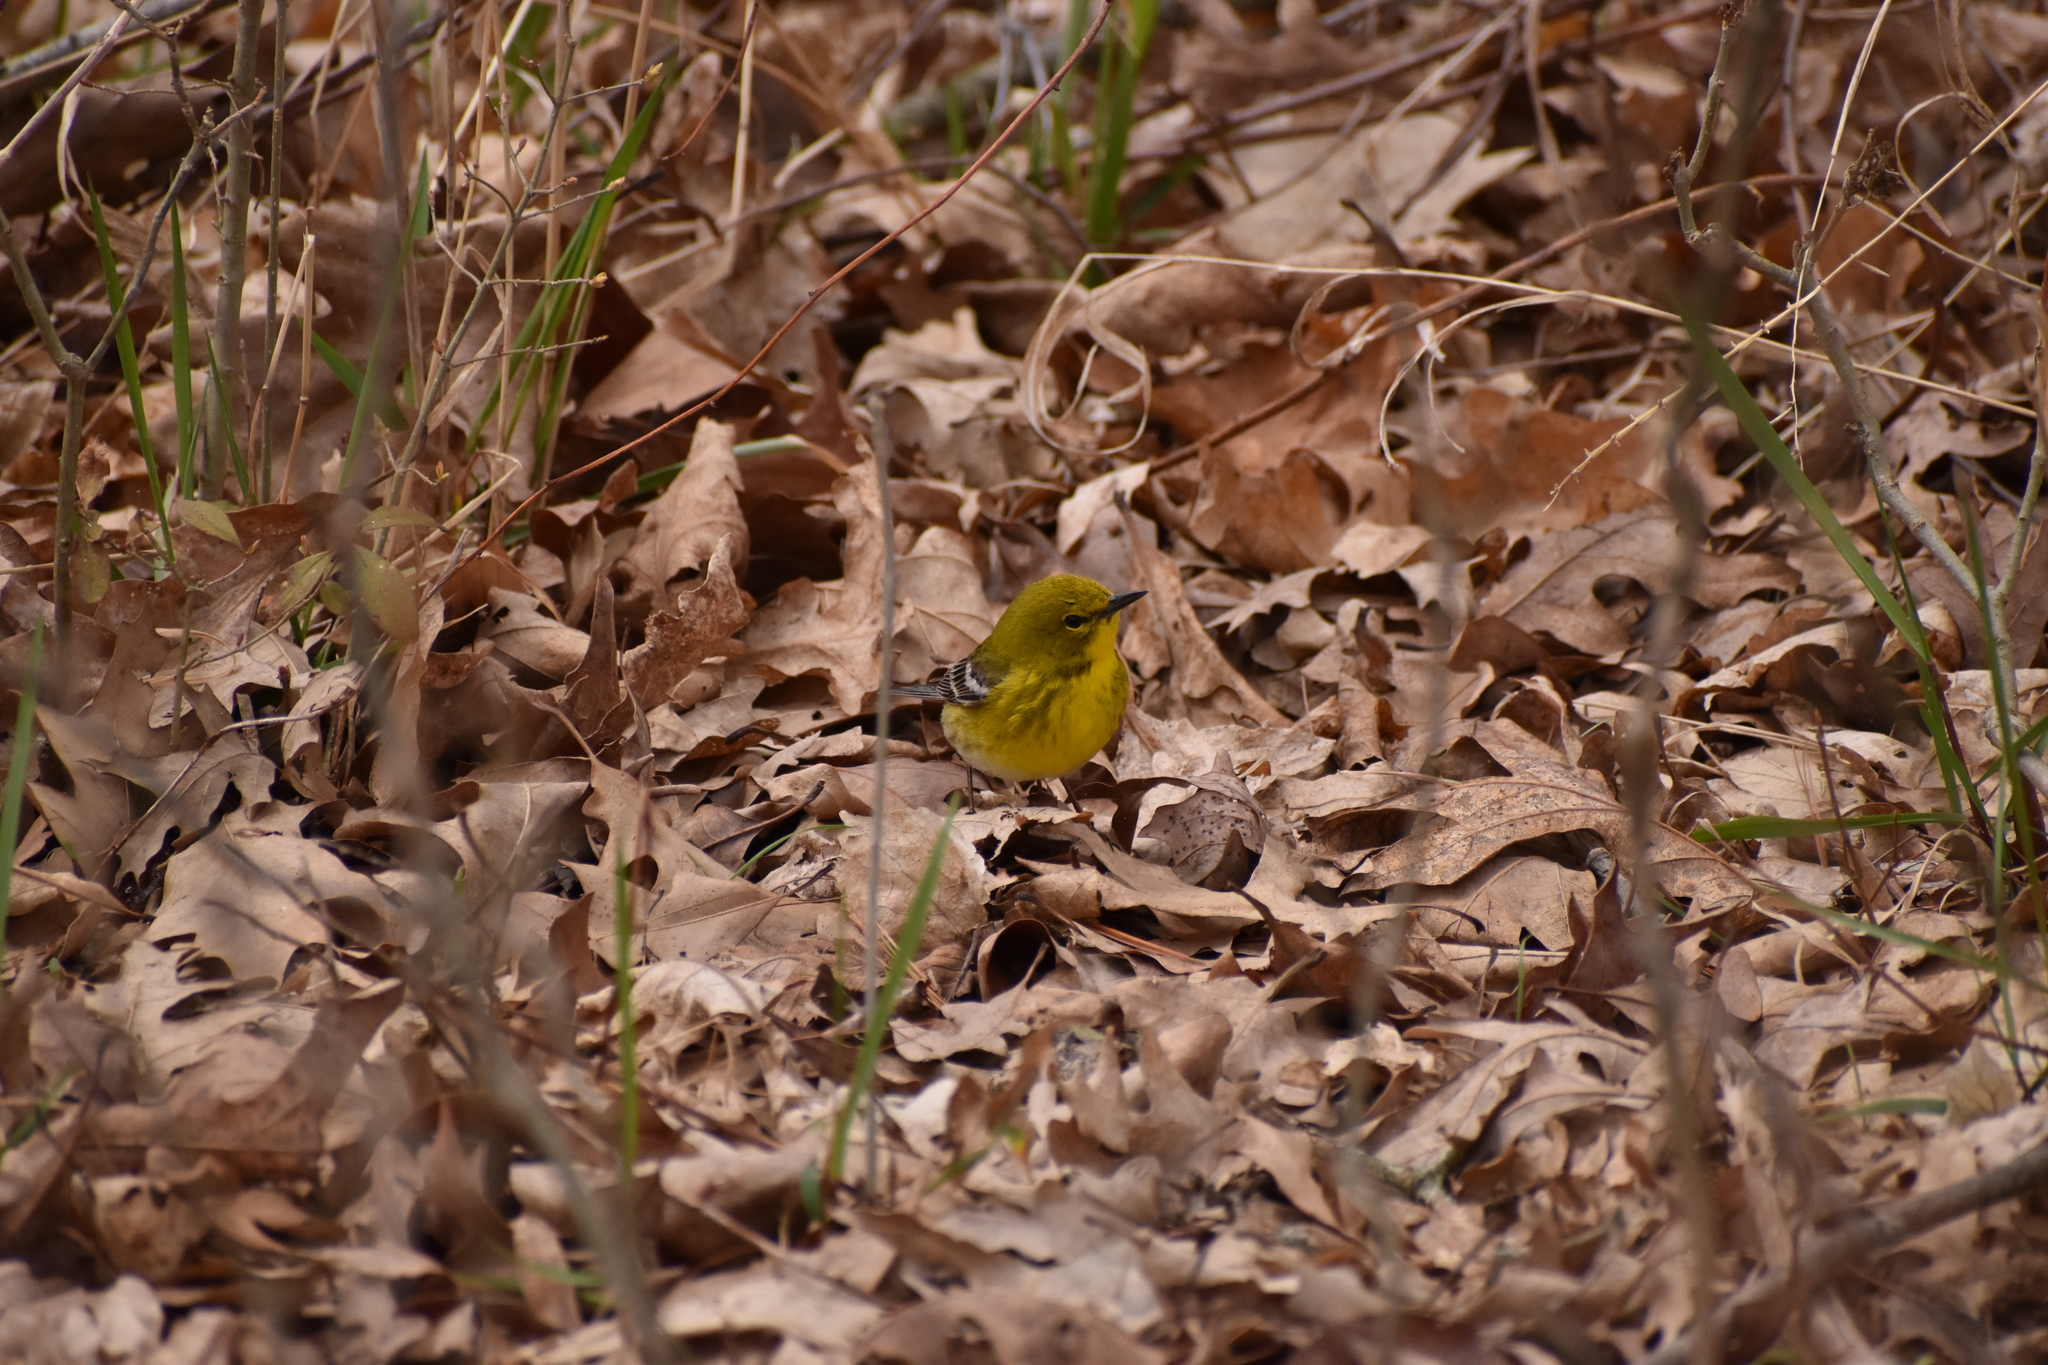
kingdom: Animalia
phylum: Chordata
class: Aves
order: Passeriformes
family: Parulidae
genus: Setophaga
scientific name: Setophaga pinus
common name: Pine warbler
